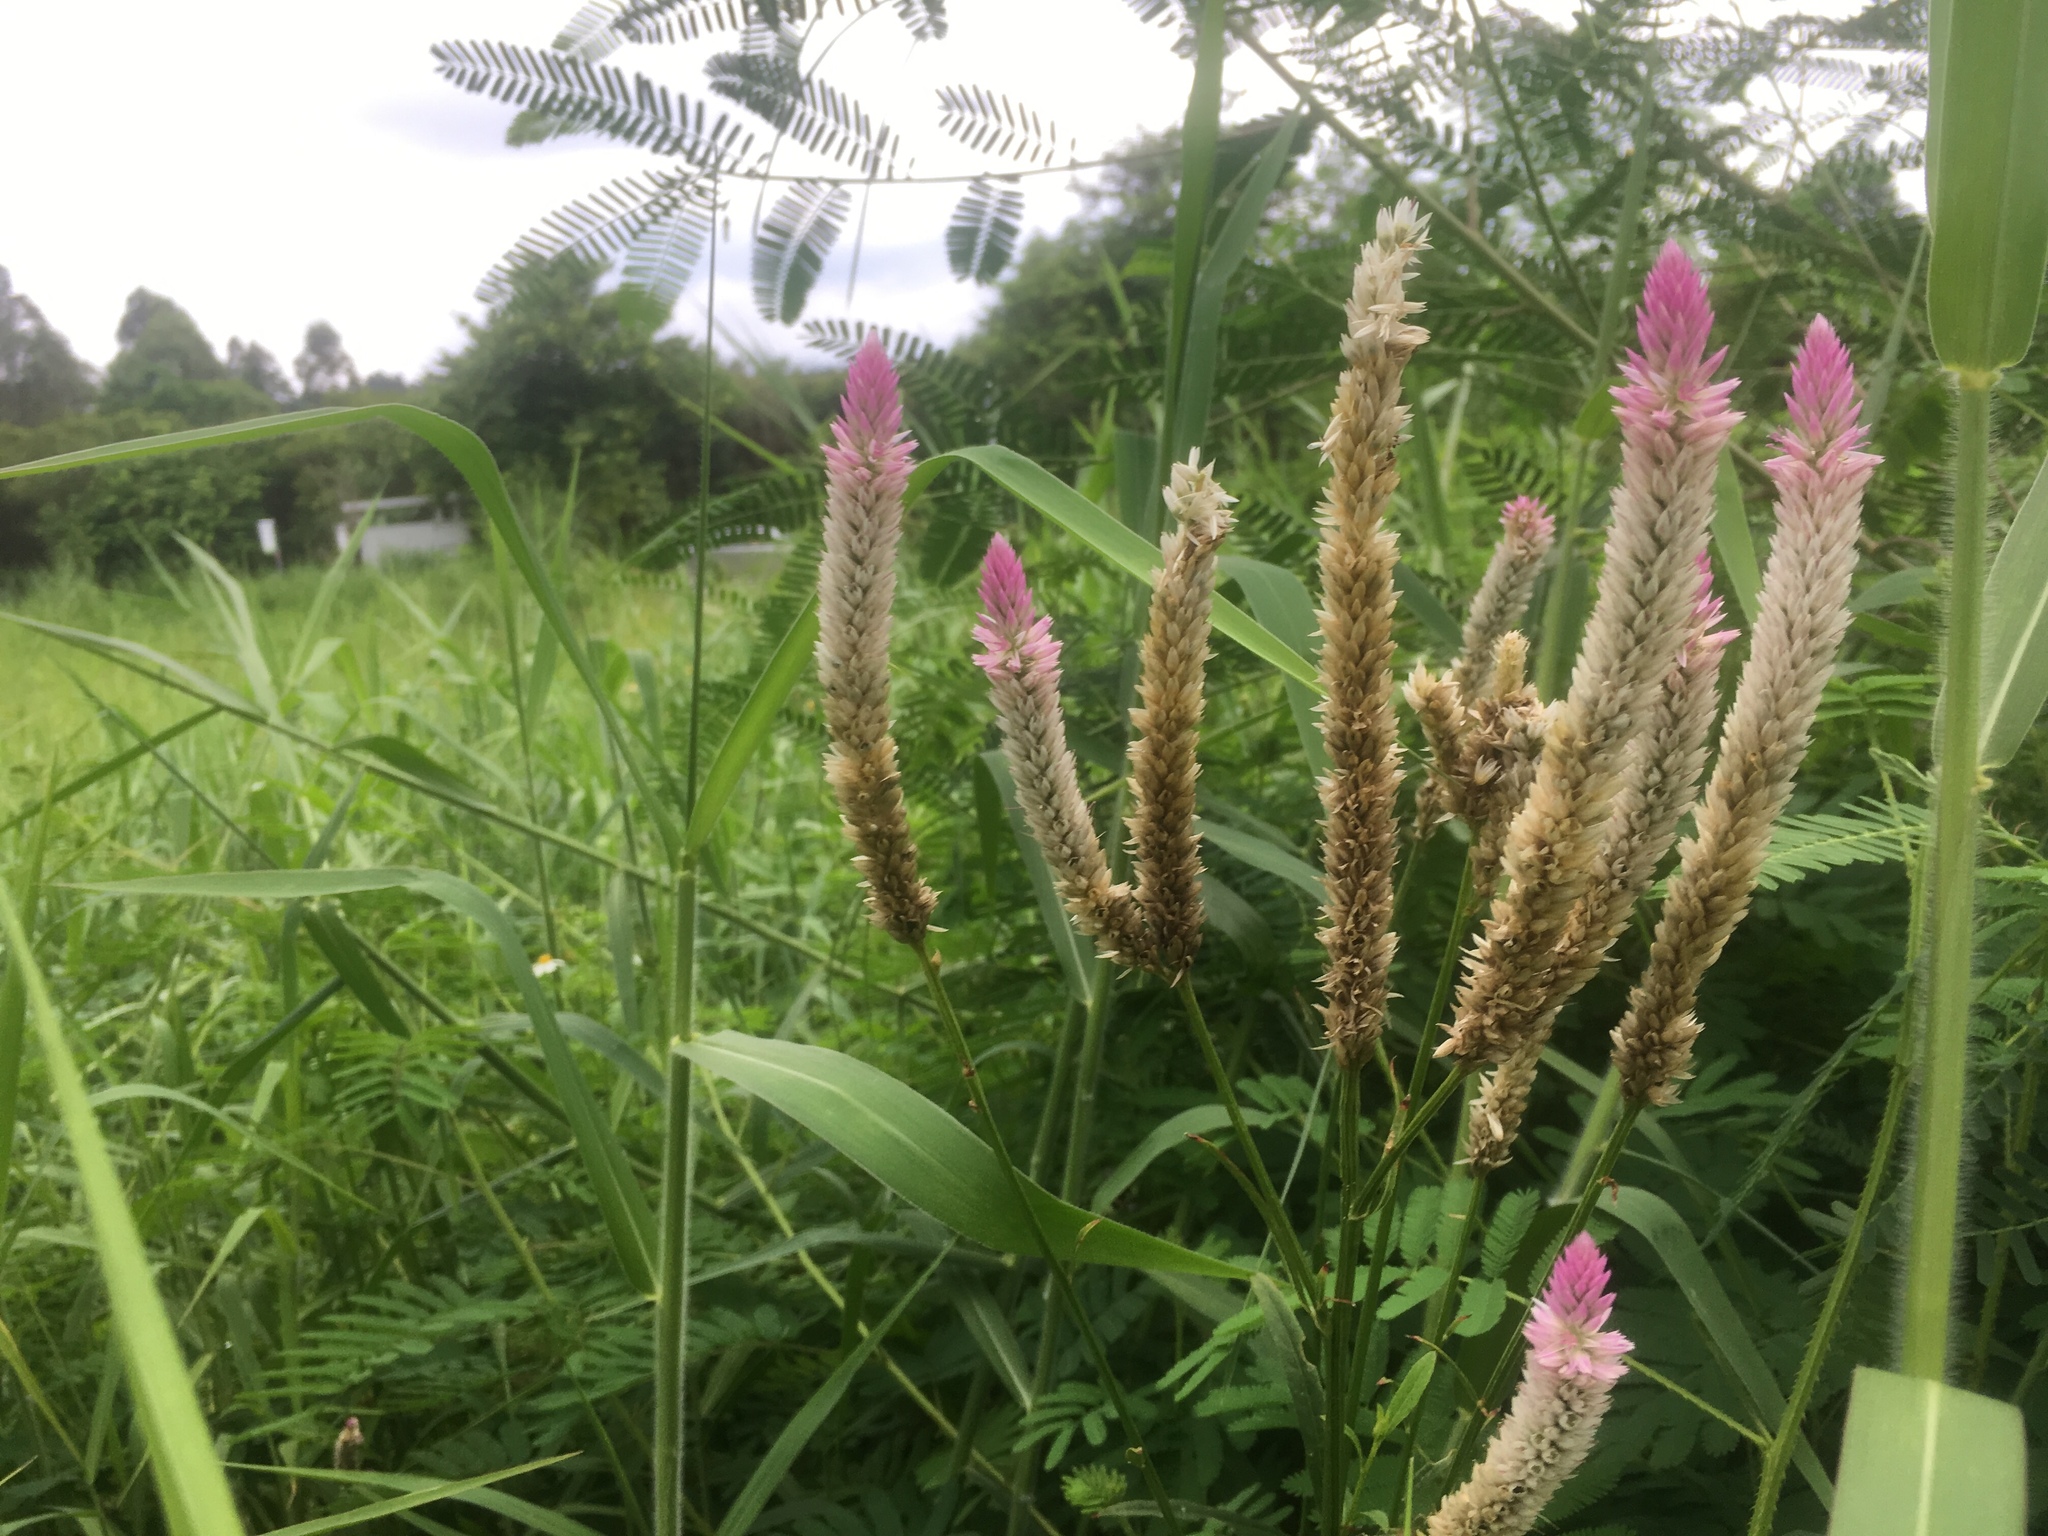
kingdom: Plantae
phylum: Tracheophyta
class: Magnoliopsida
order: Caryophyllales
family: Amaranthaceae
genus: Celosia
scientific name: Celosia argentea
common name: Feather cockscomb
